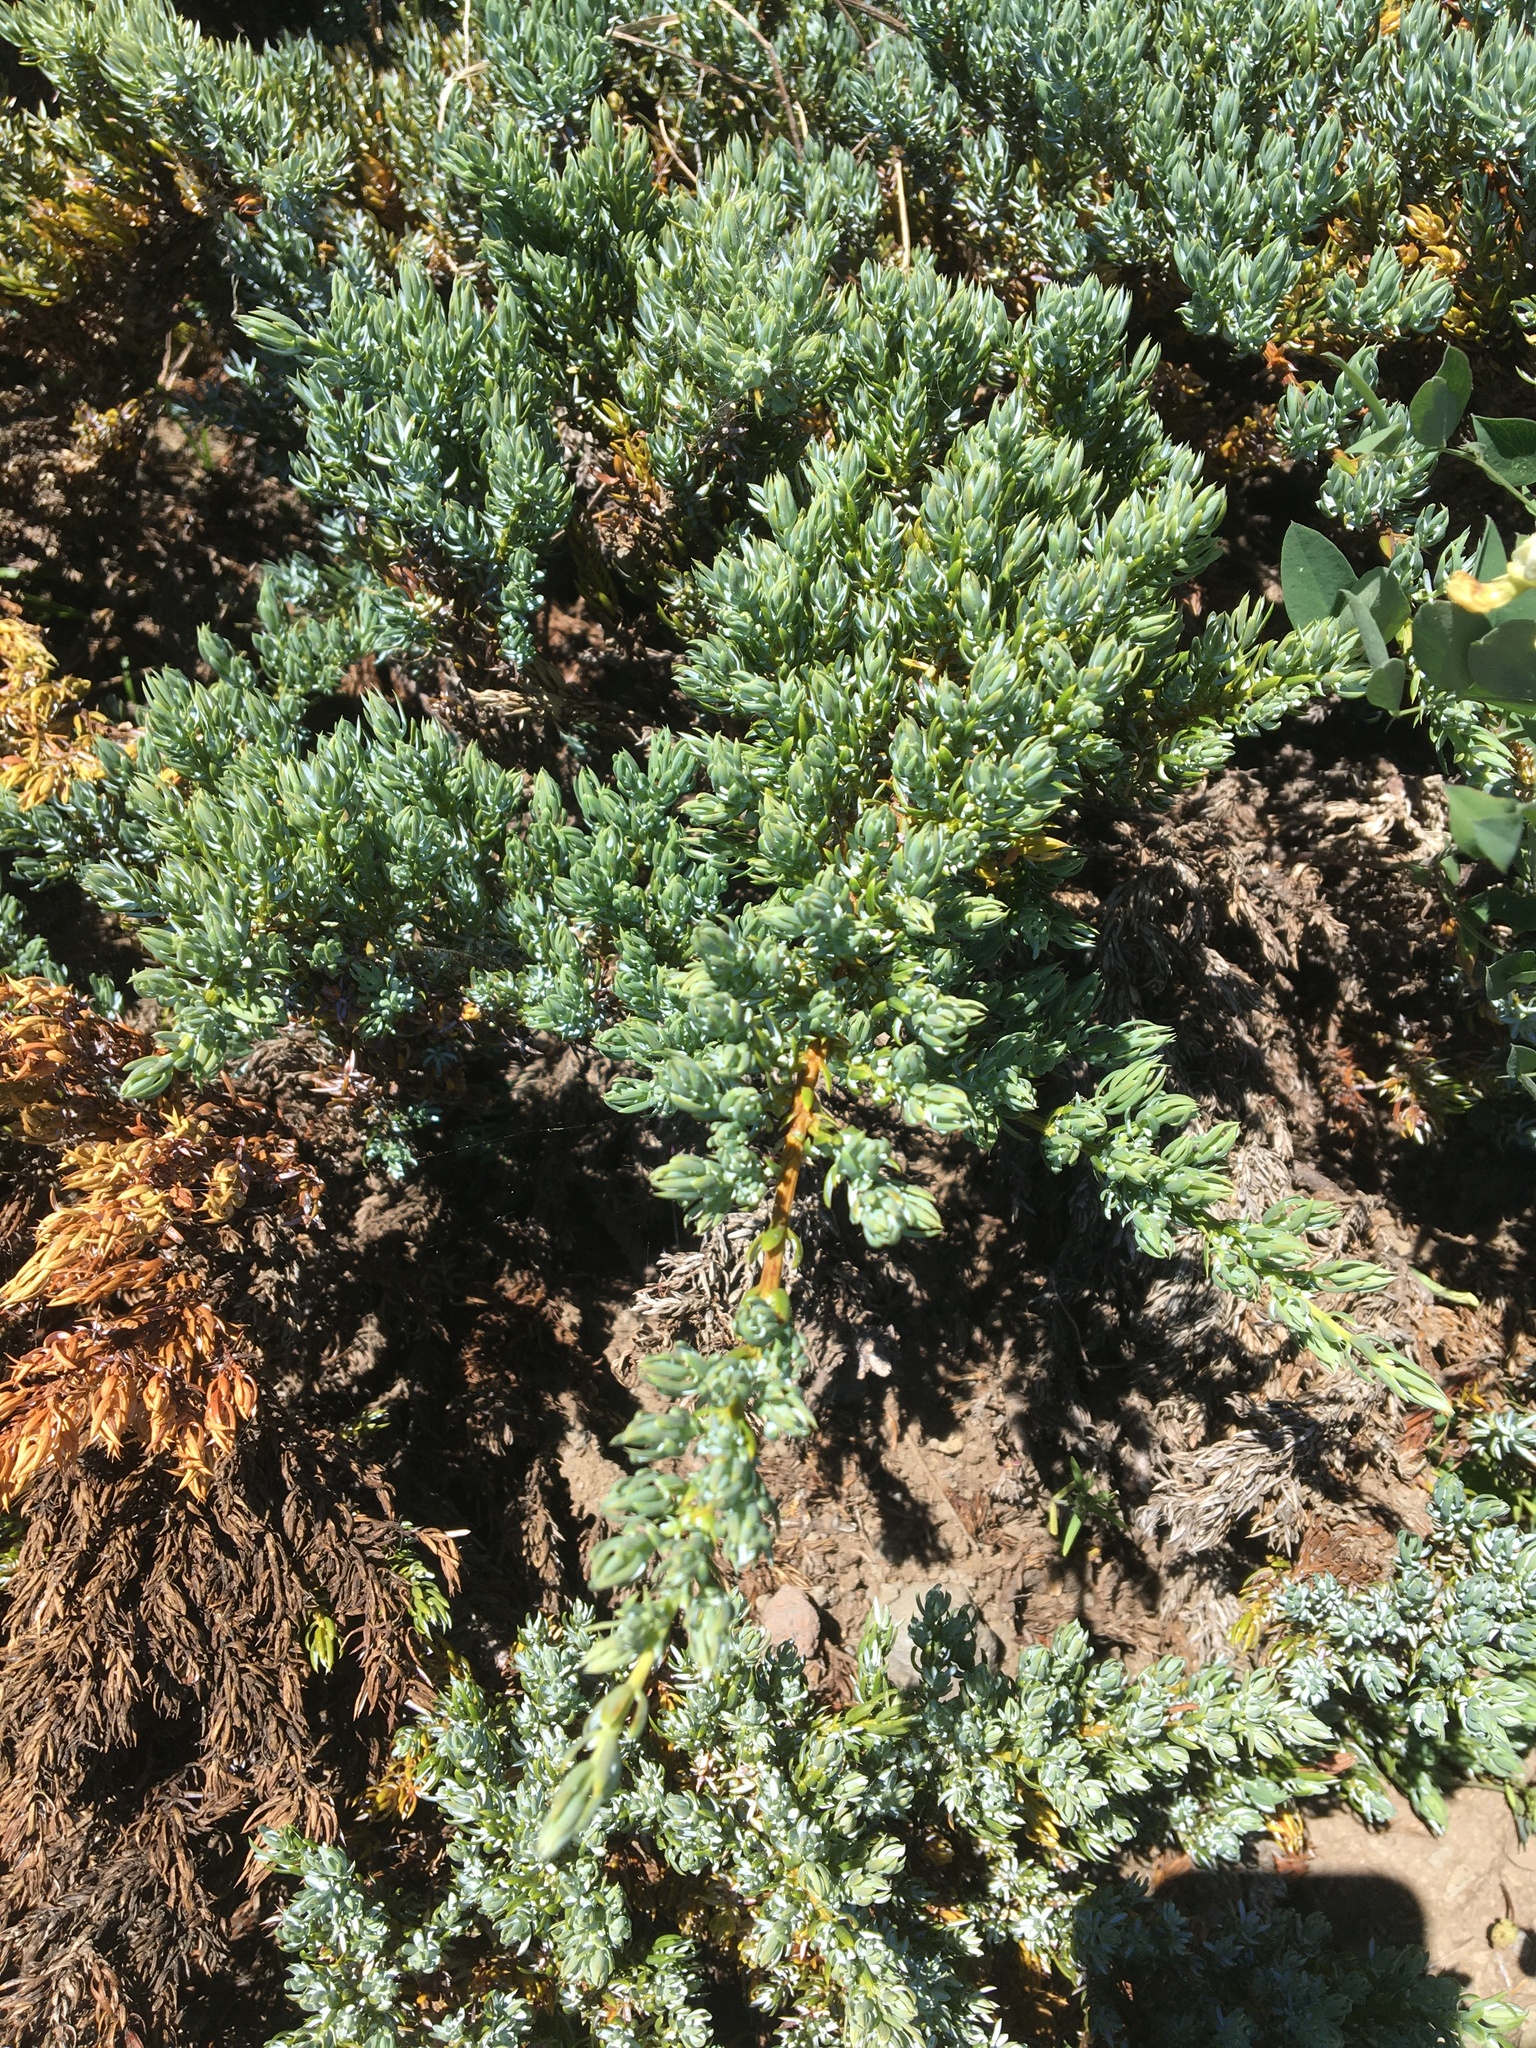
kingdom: Plantae
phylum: Tracheophyta
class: Pinopsida
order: Pinales
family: Cupressaceae
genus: Juniperus
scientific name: Juniperus communis
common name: Common juniper
